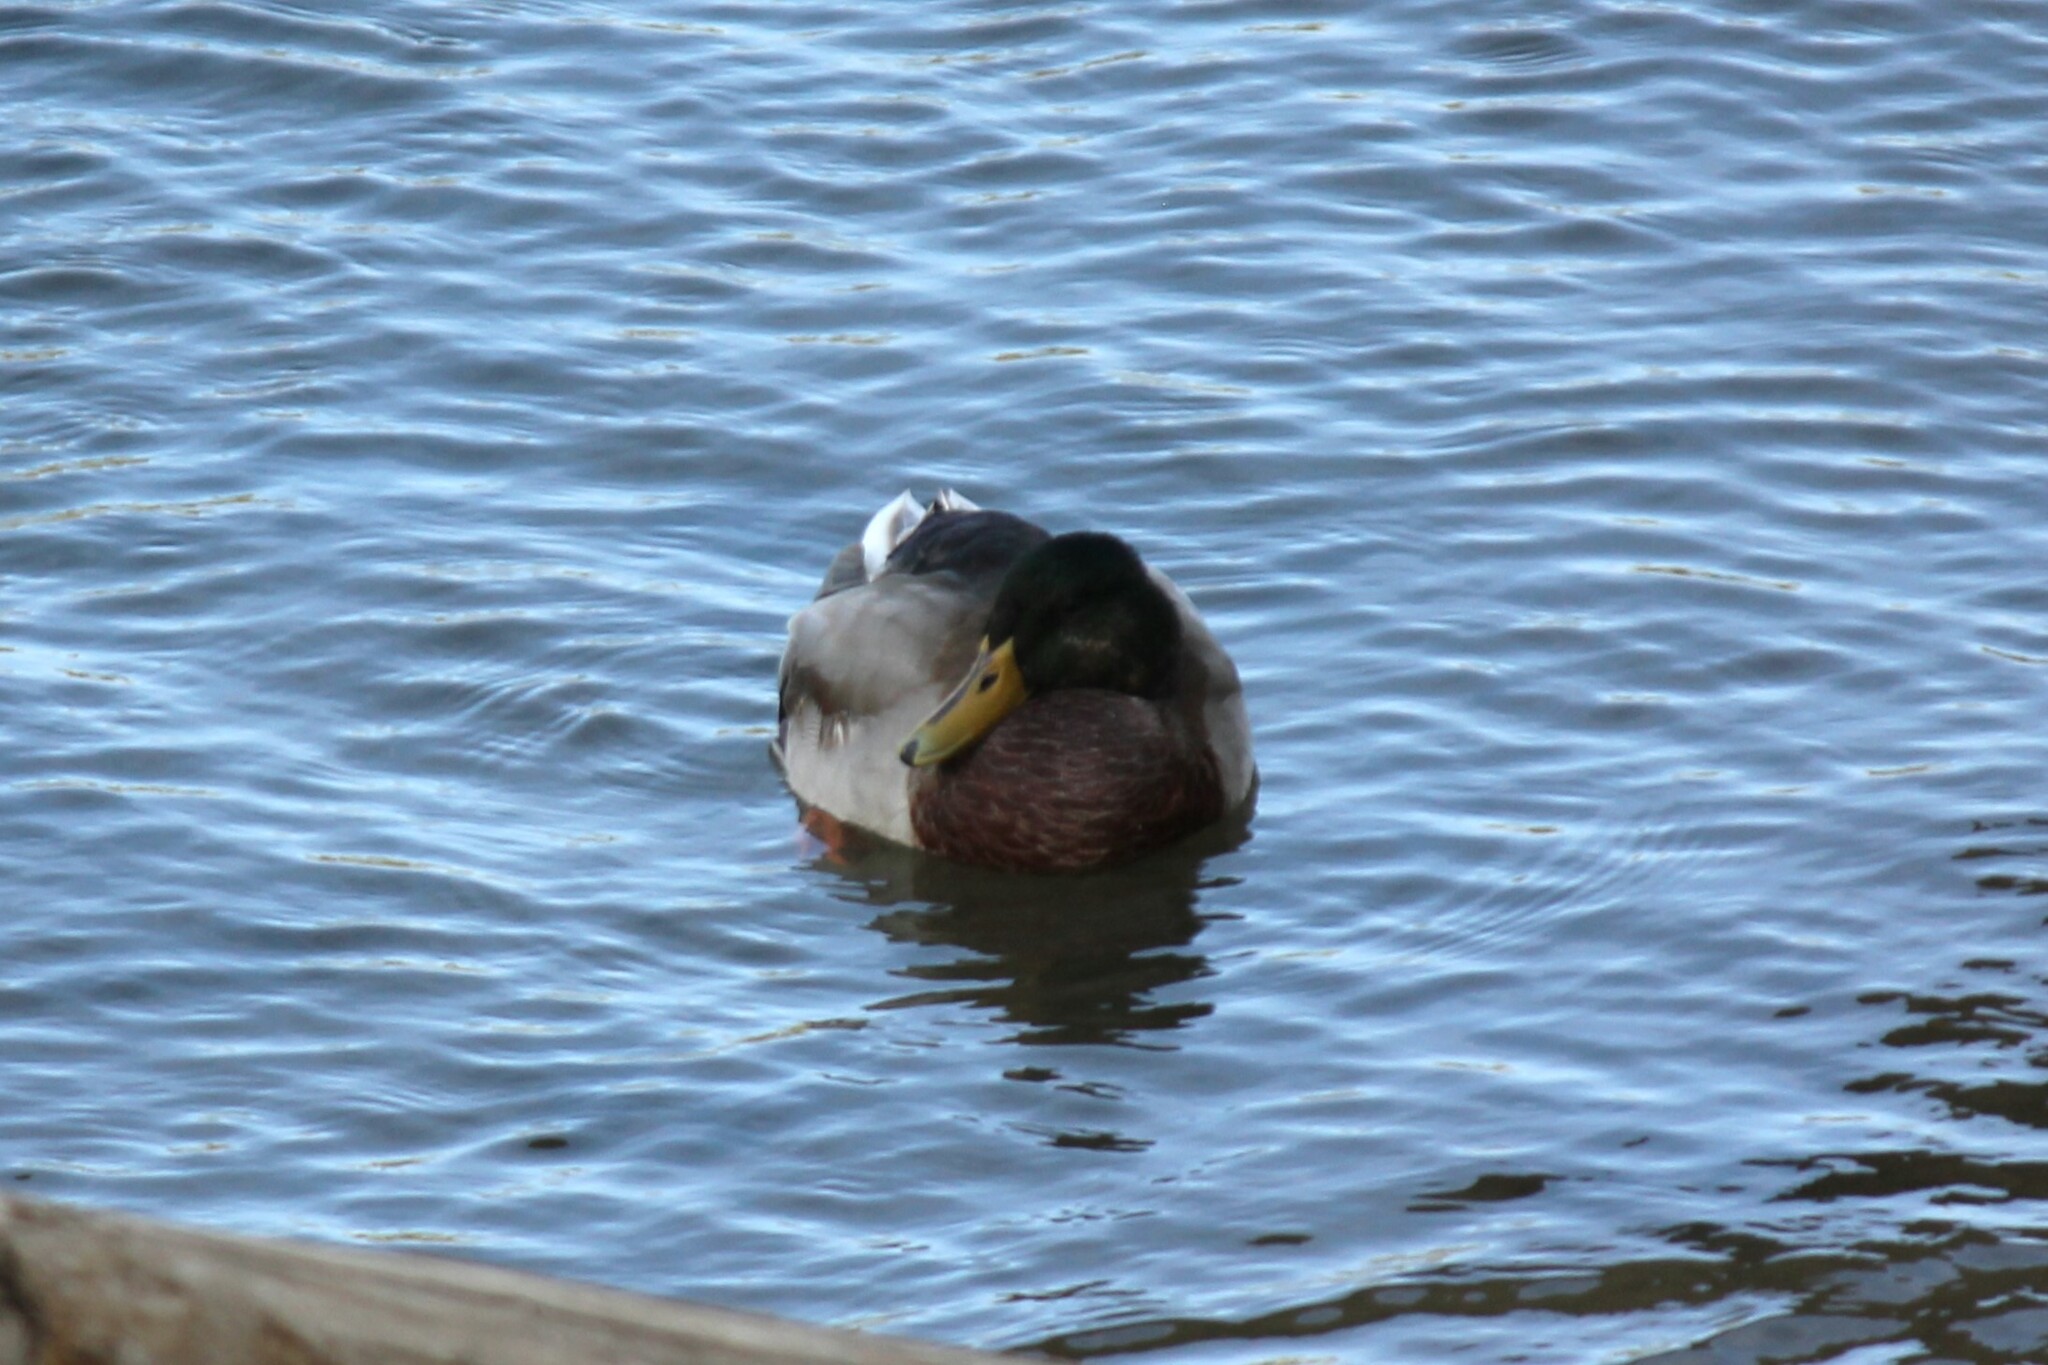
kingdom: Animalia
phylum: Chordata
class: Aves
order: Anseriformes
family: Anatidae
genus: Anas
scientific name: Anas platyrhynchos
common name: Mallard
